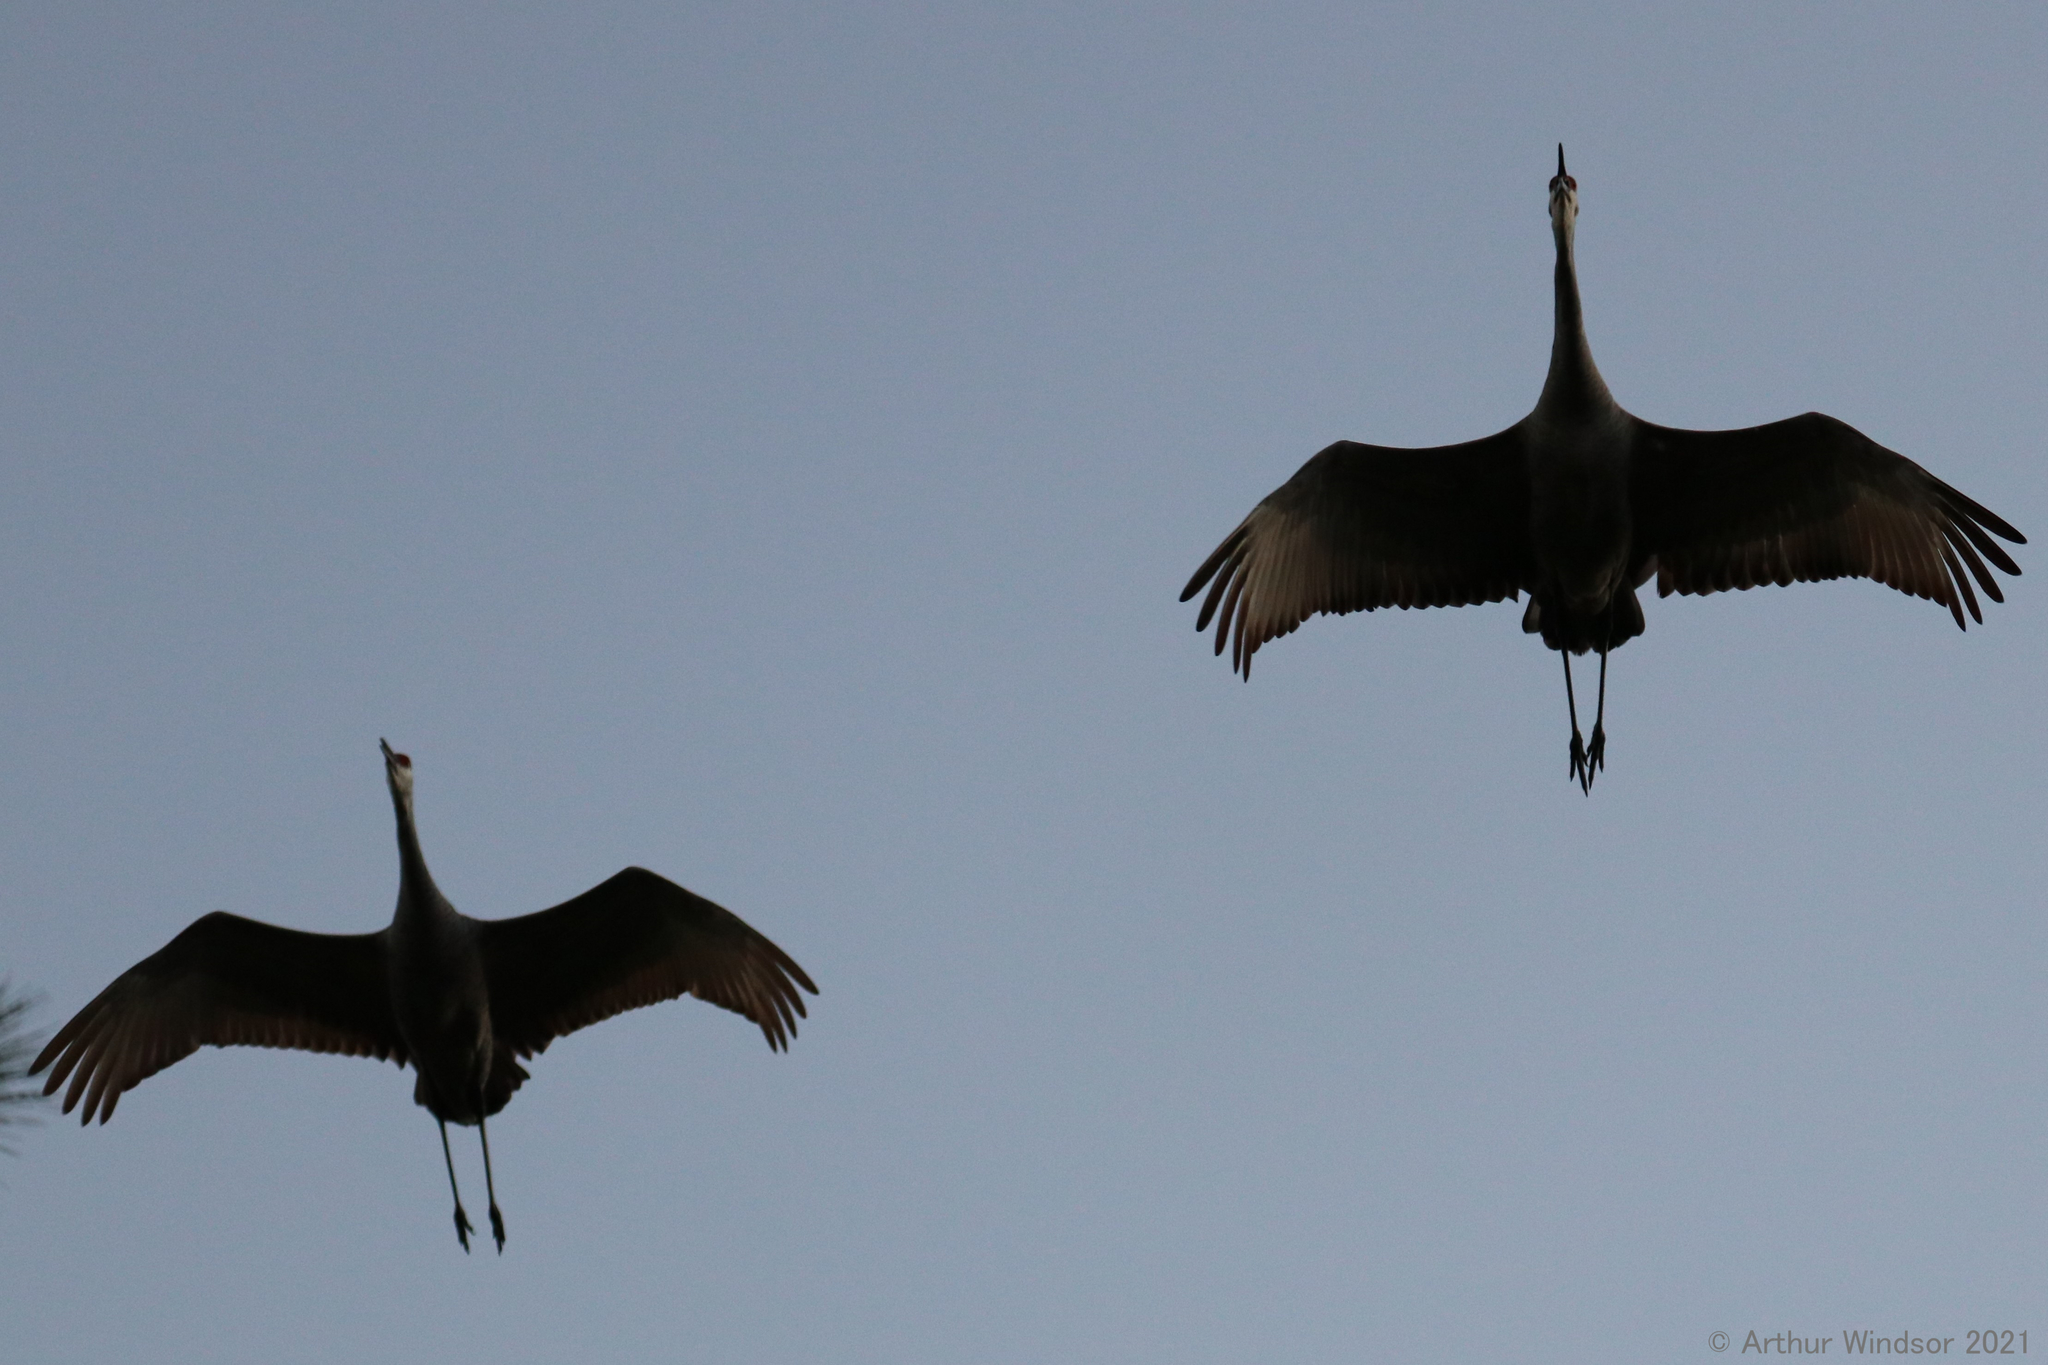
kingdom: Animalia
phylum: Chordata
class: Aves
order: Gruiformes
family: Gruidae
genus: Grus
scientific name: Grus canadensis
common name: Sandhill crane
